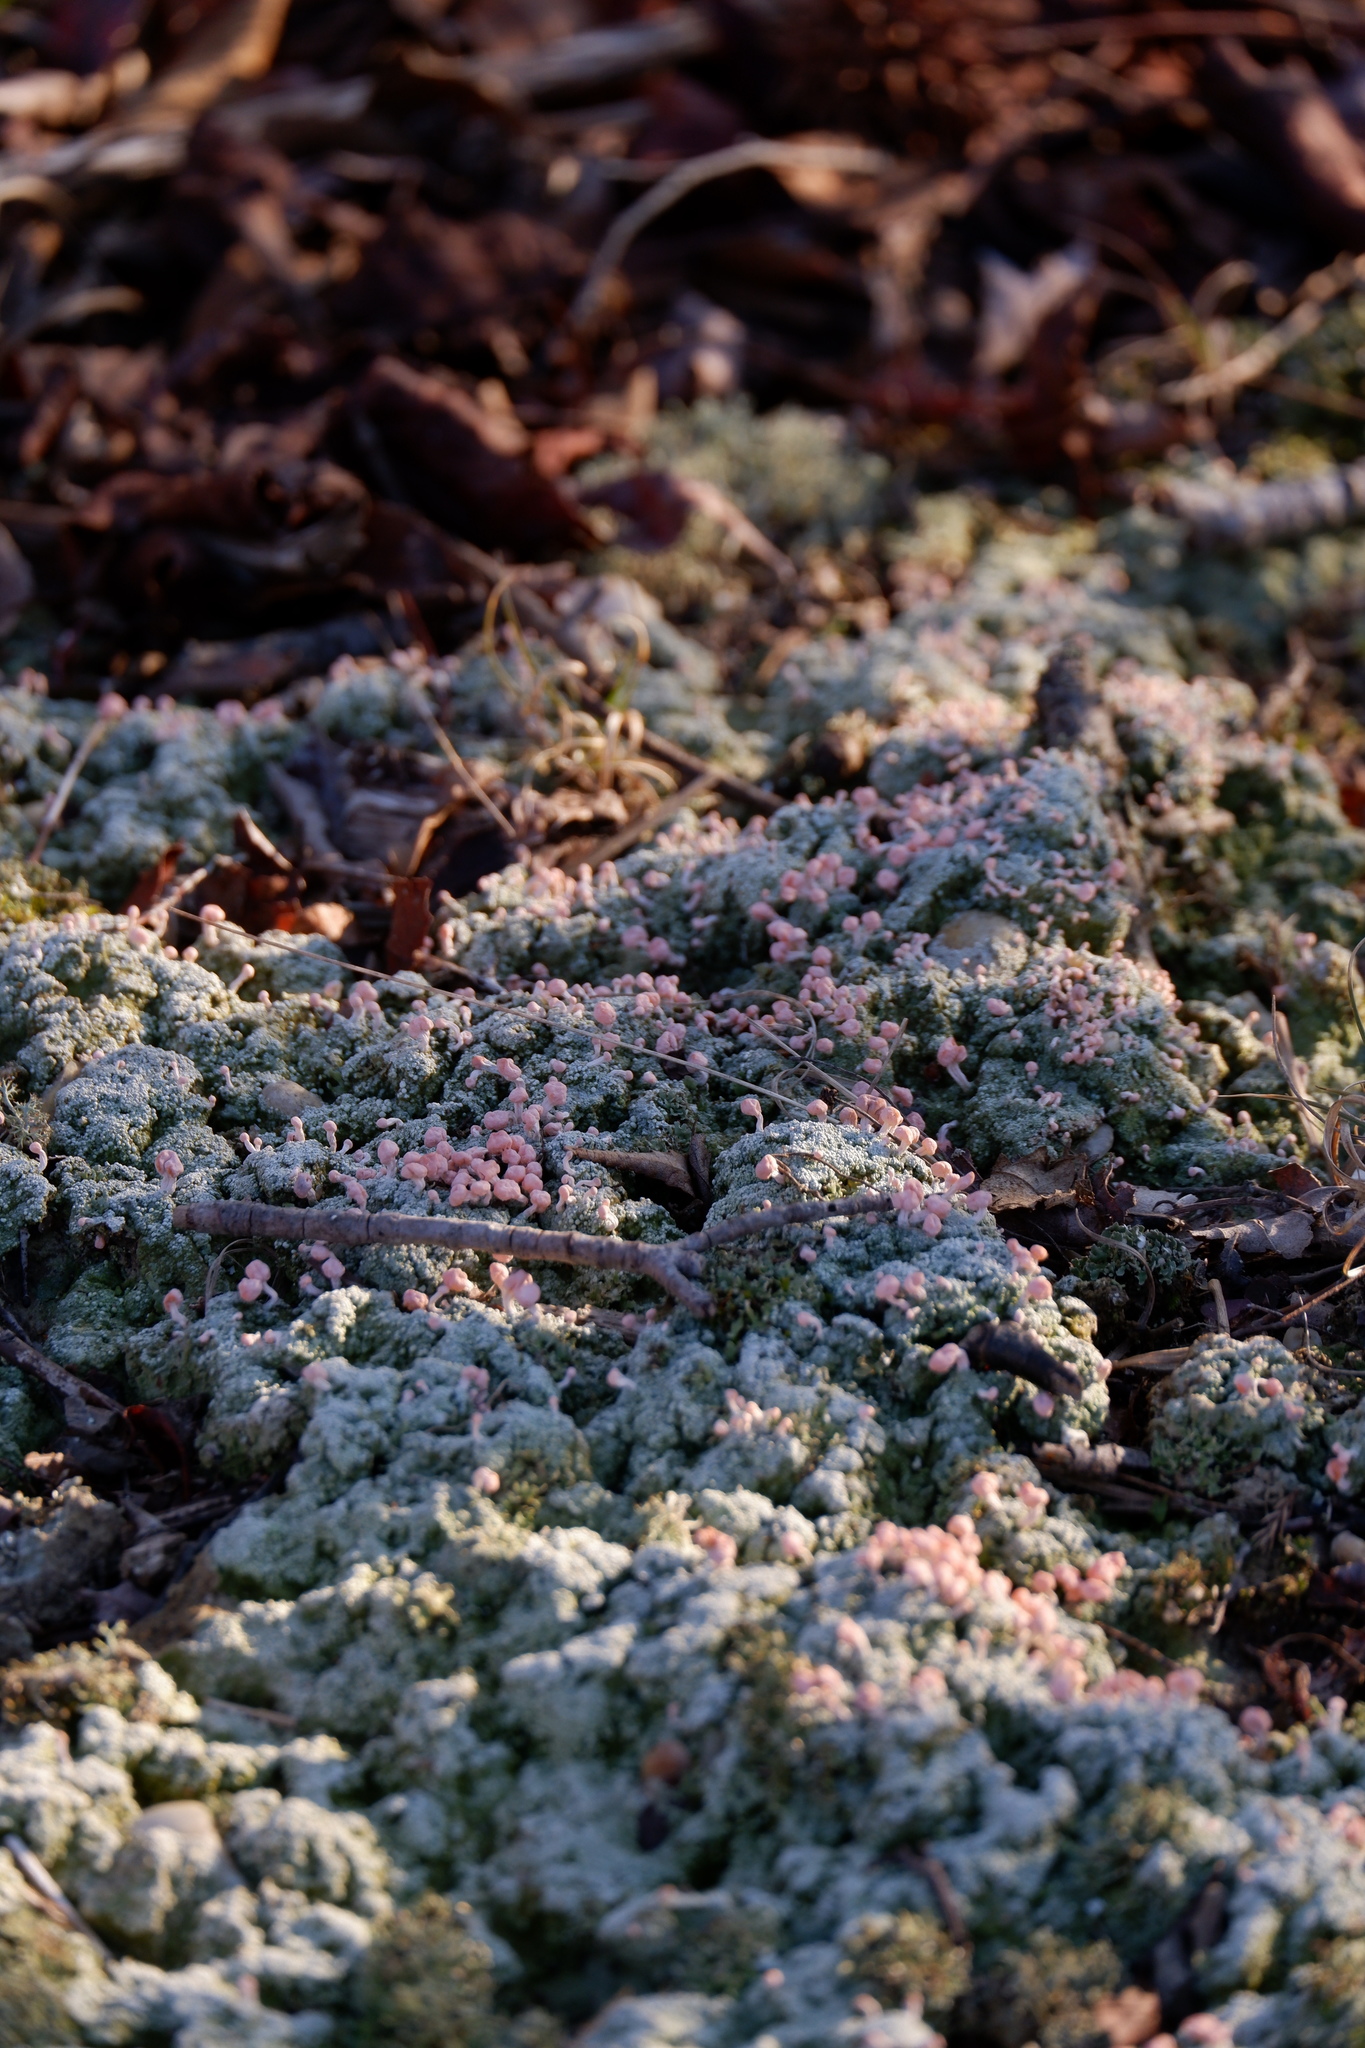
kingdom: Fungi
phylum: Ascomycota
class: Lecanoromycetes
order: Pertusariales
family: Icmadophilaceae
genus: Dibaeis
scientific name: Dibaeis baeomyces
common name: Pink earth lichen
